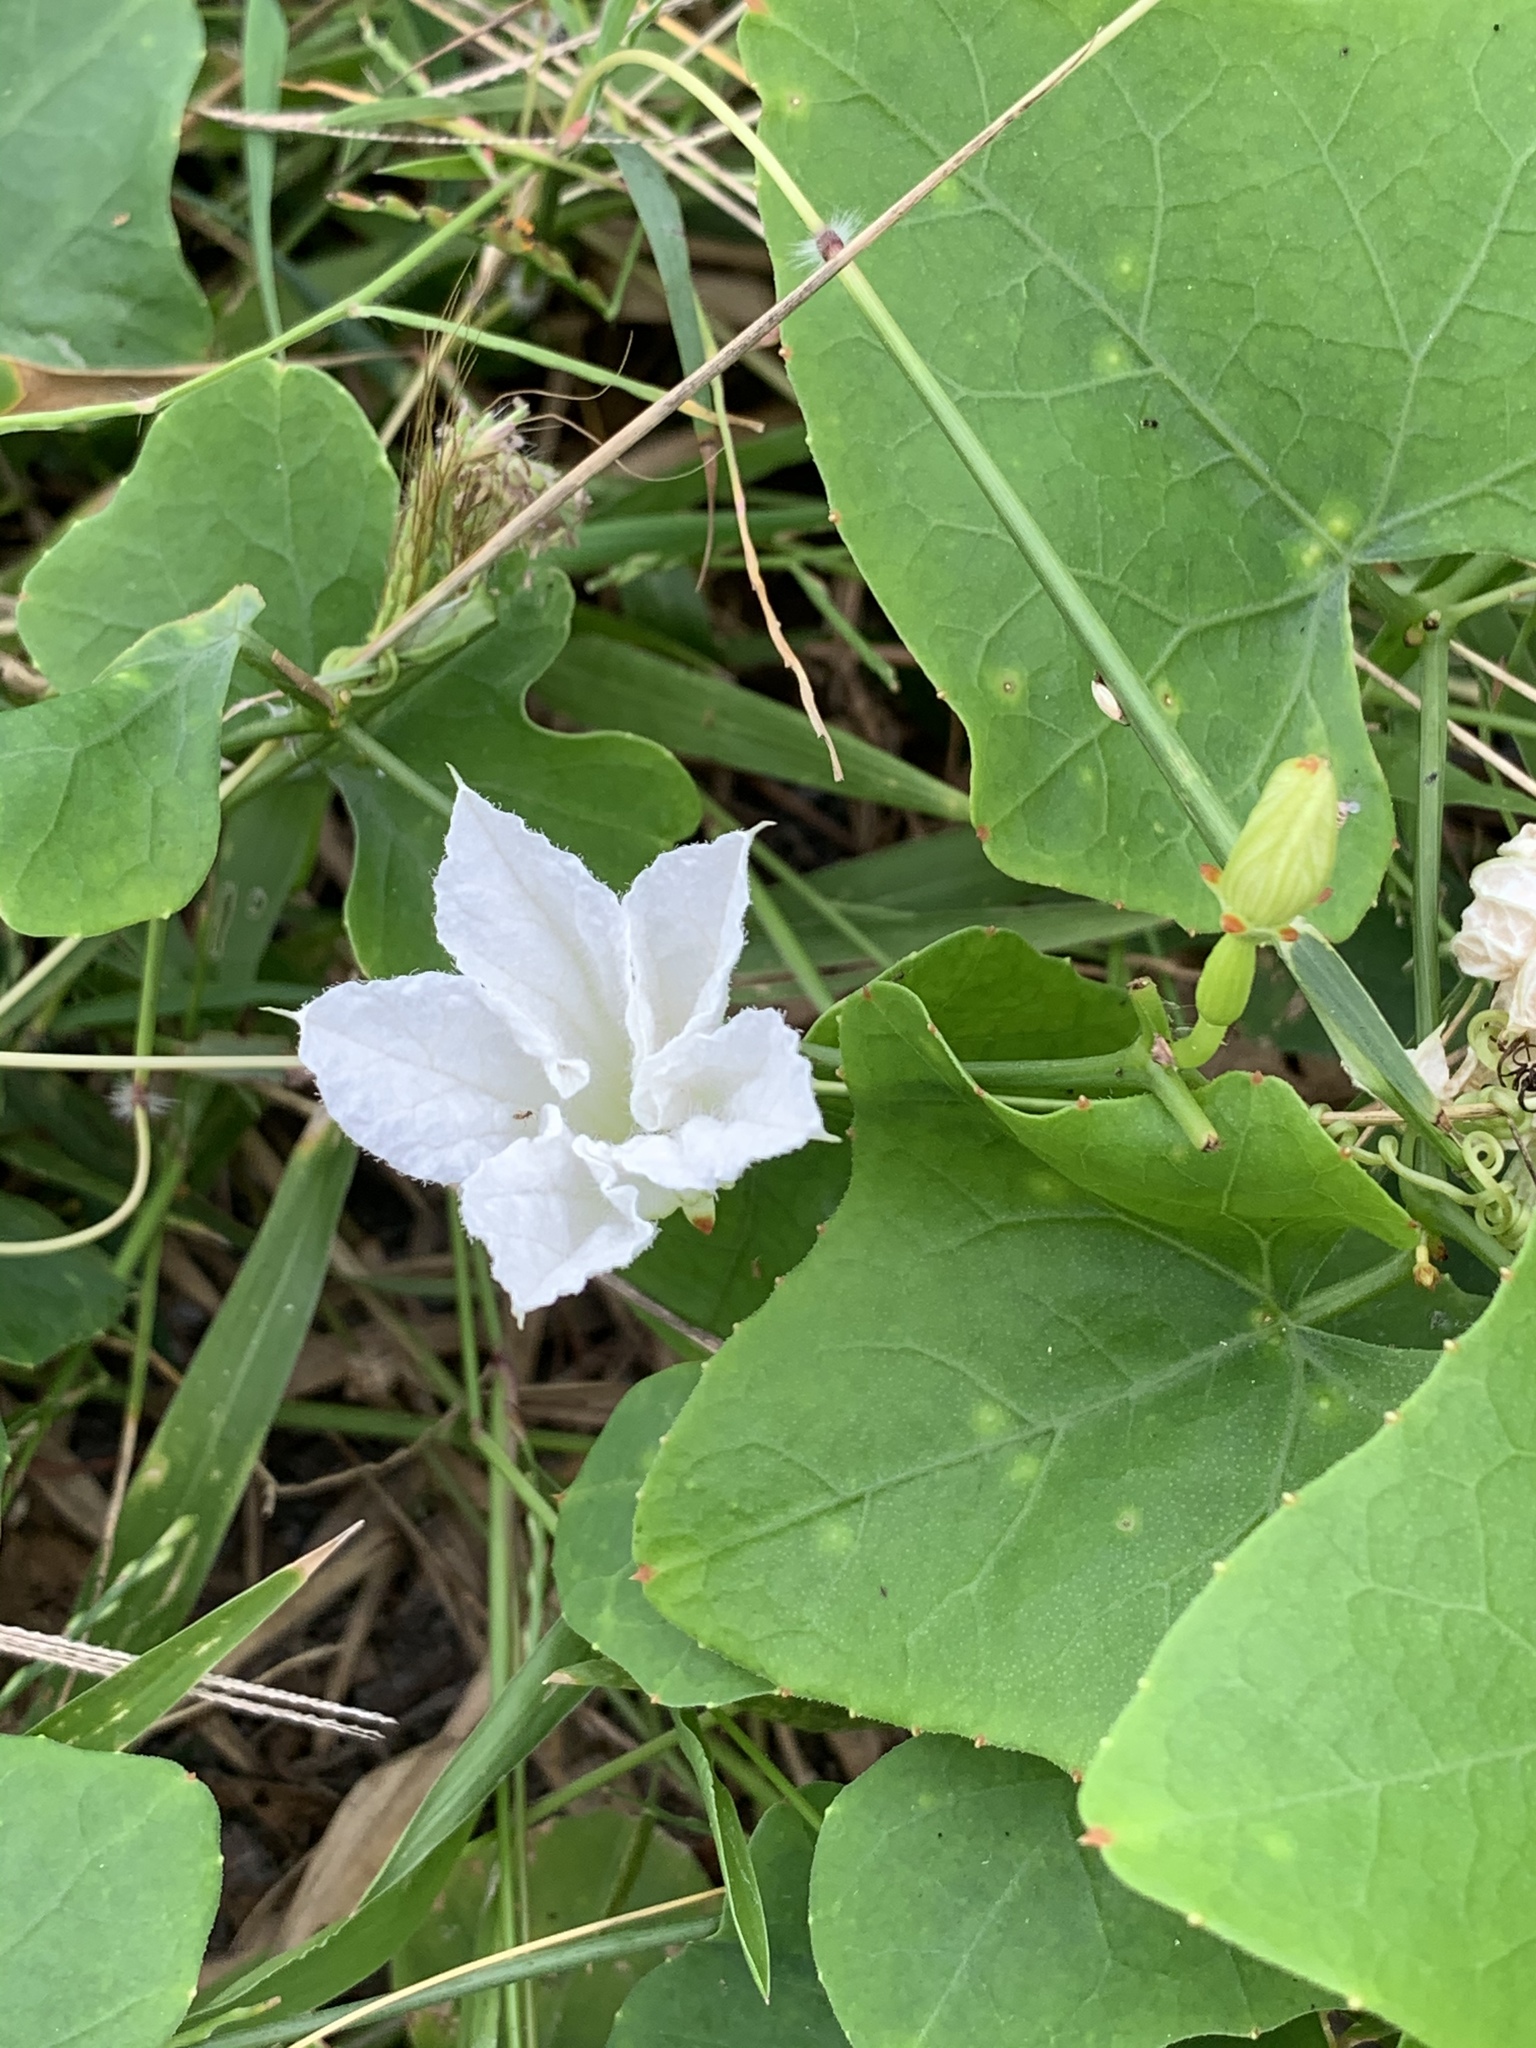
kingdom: Plantae
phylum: Tracheophyta
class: Magnoliopsida
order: Cucurbitales
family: Cucurbitaceae
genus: Coccinia
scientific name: Coccinia grandis
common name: Ivy gourd
